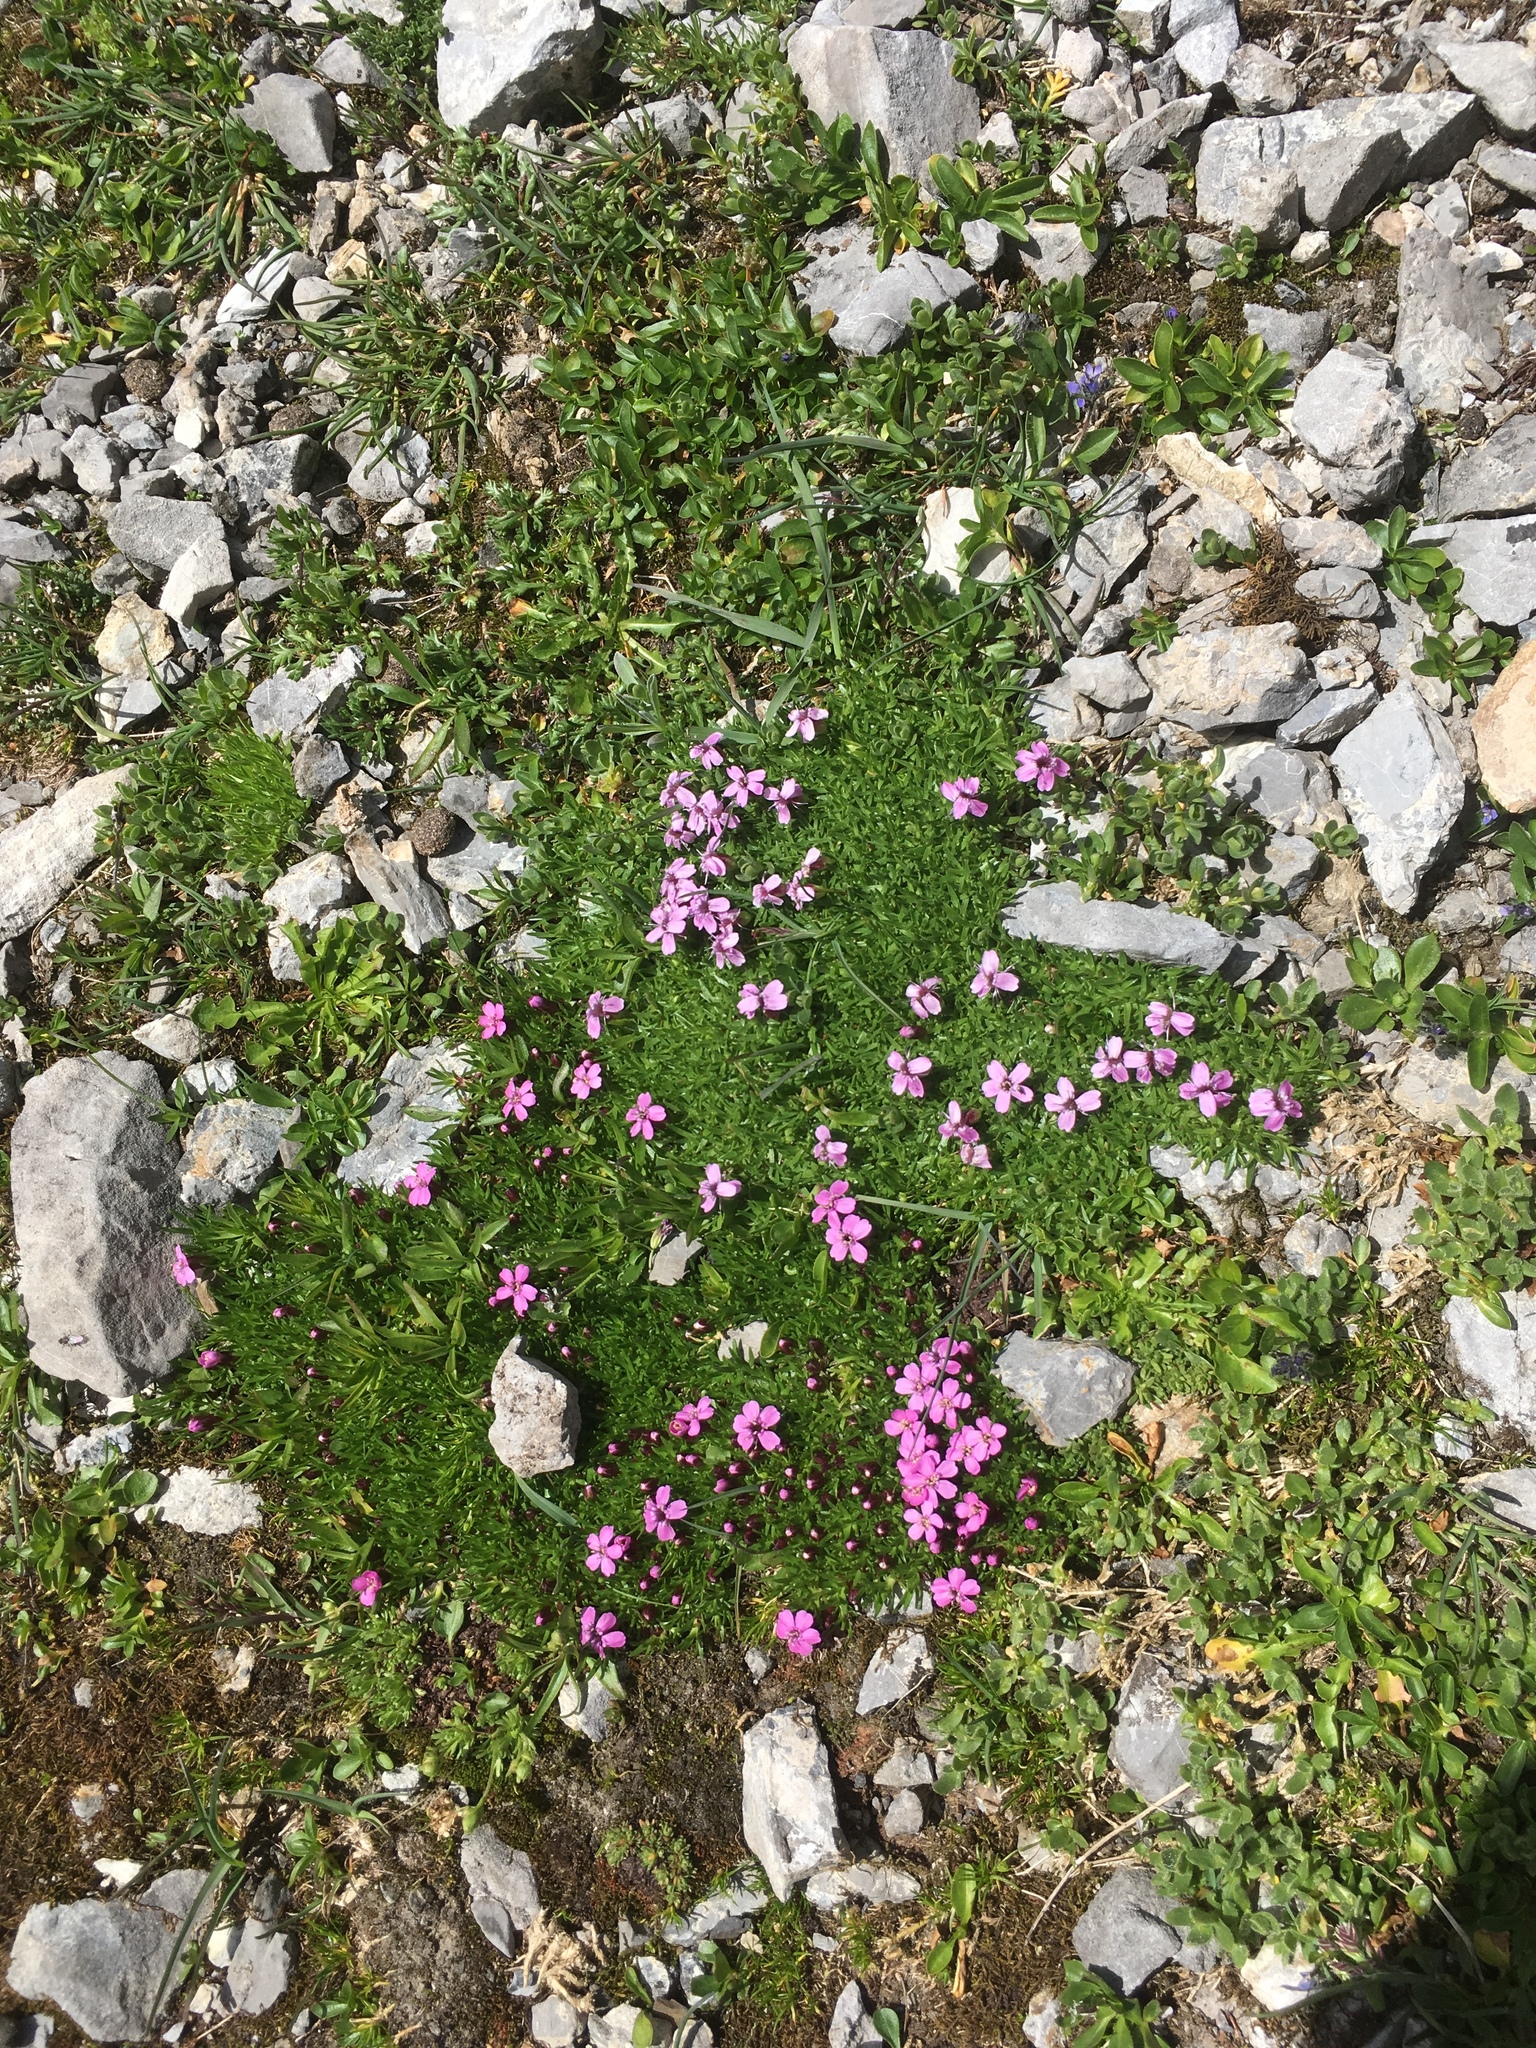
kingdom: Plantae
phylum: Tracheophyta
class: Magnoliopsida
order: Caryophyllales
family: Caryophyllaceae
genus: Silene
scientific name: Silene acaulis
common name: Moss campion
